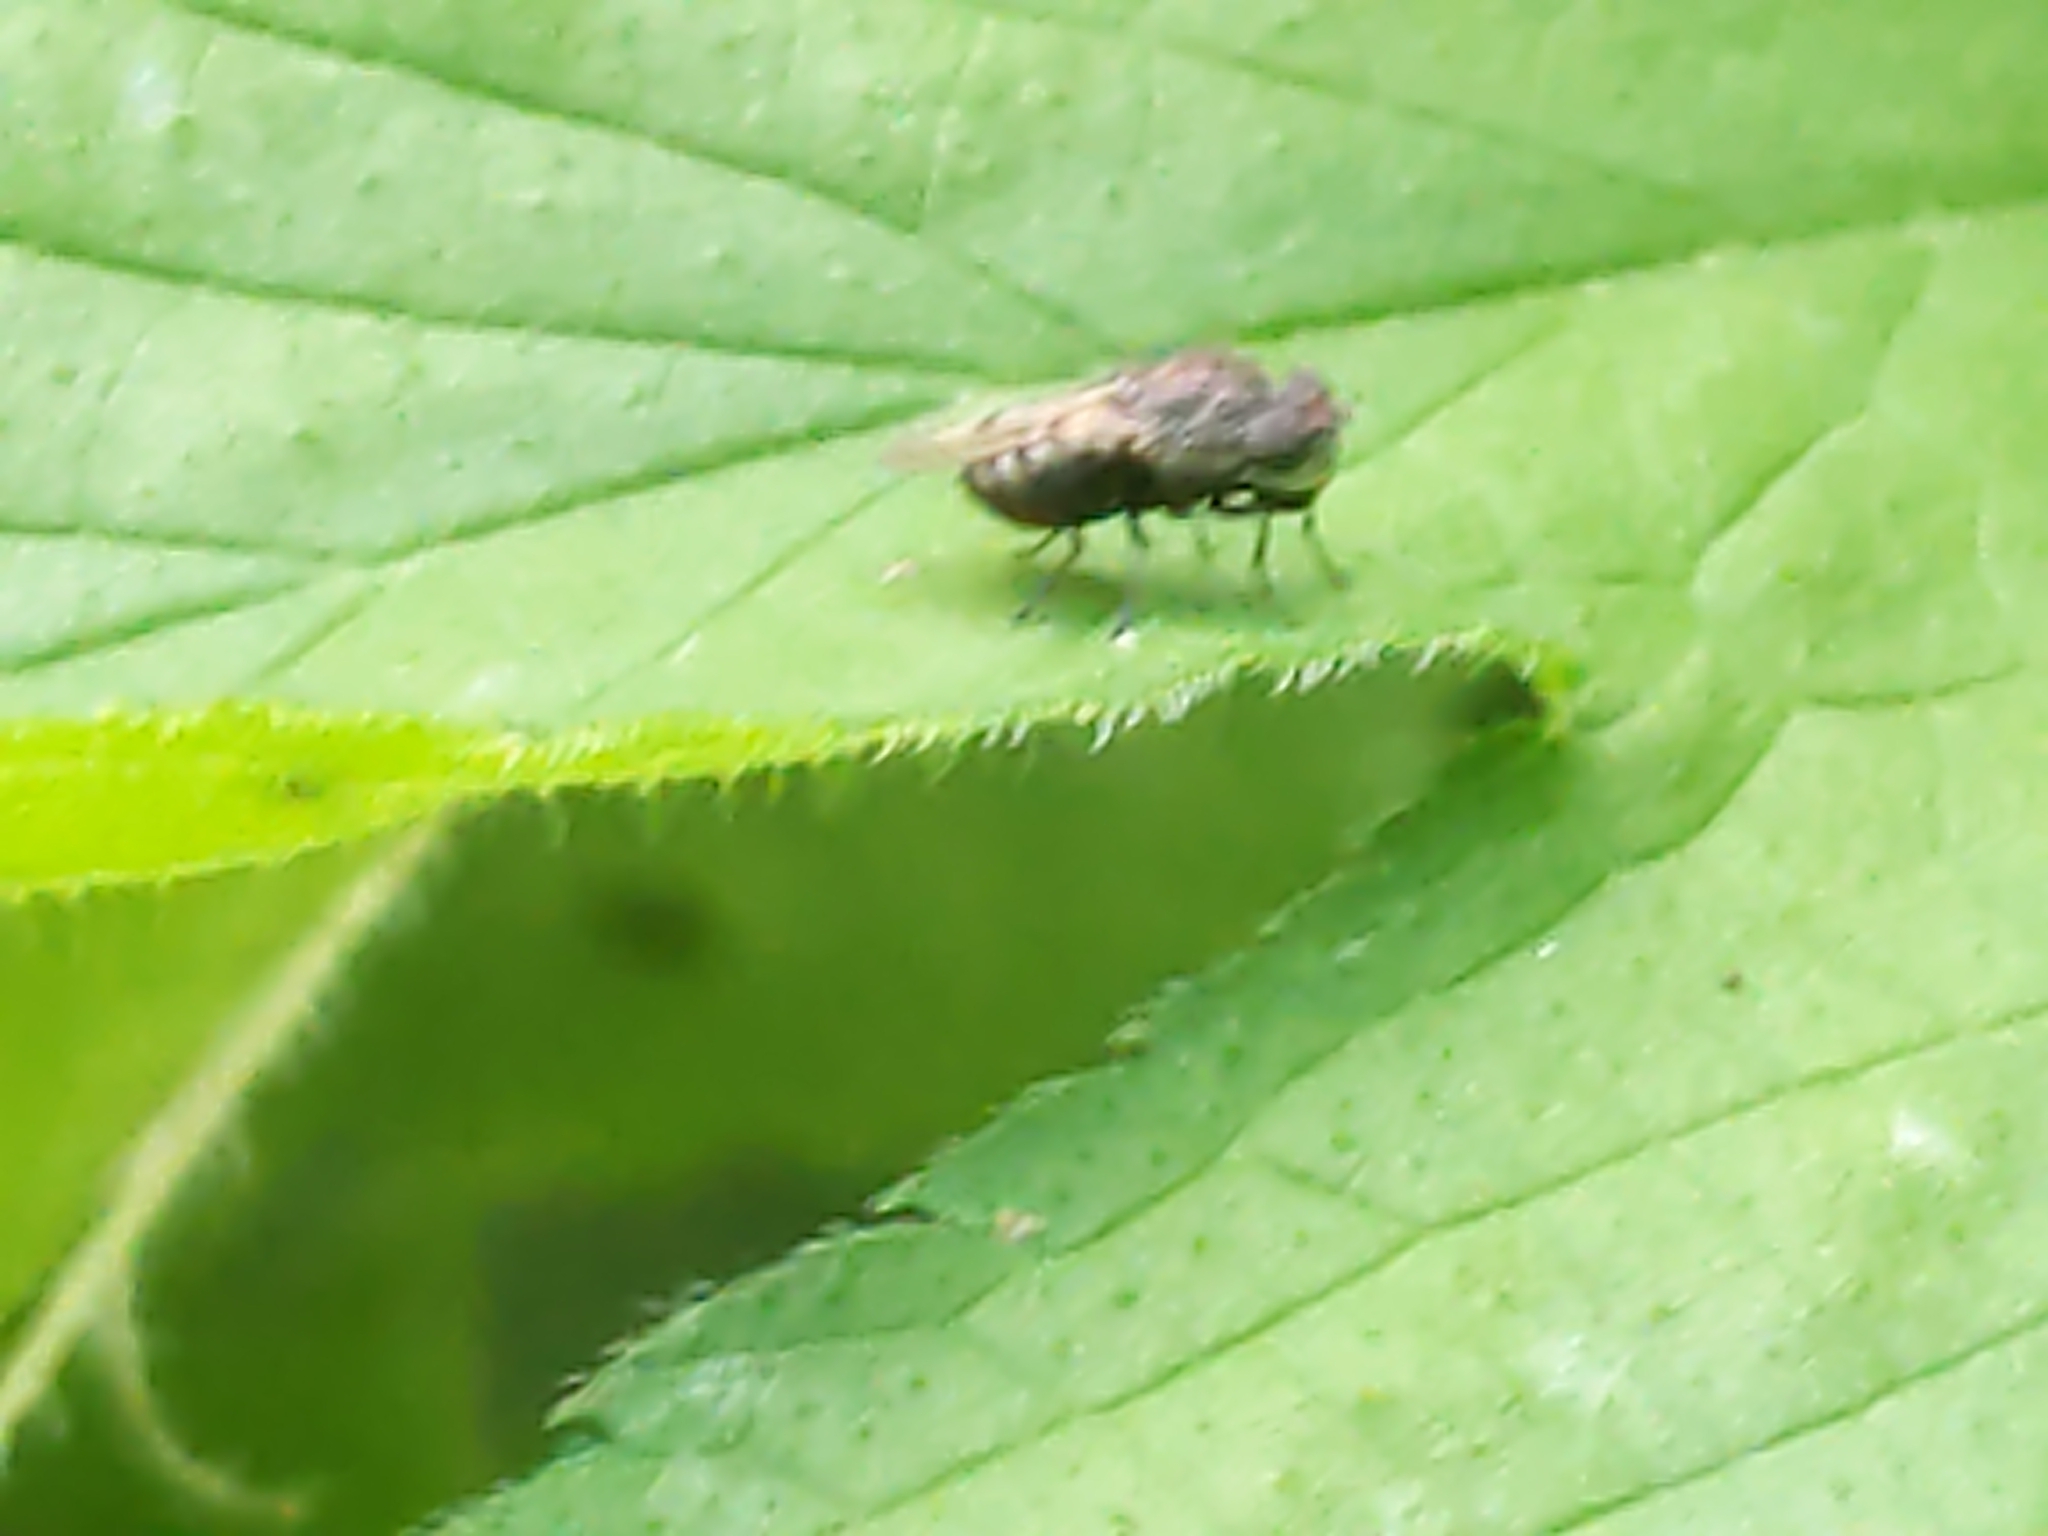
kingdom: Animalia
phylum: Arthropoda
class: Insecta
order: Diptera
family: Ephydridae
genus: Paralimna
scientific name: Paralimna punctipennis
